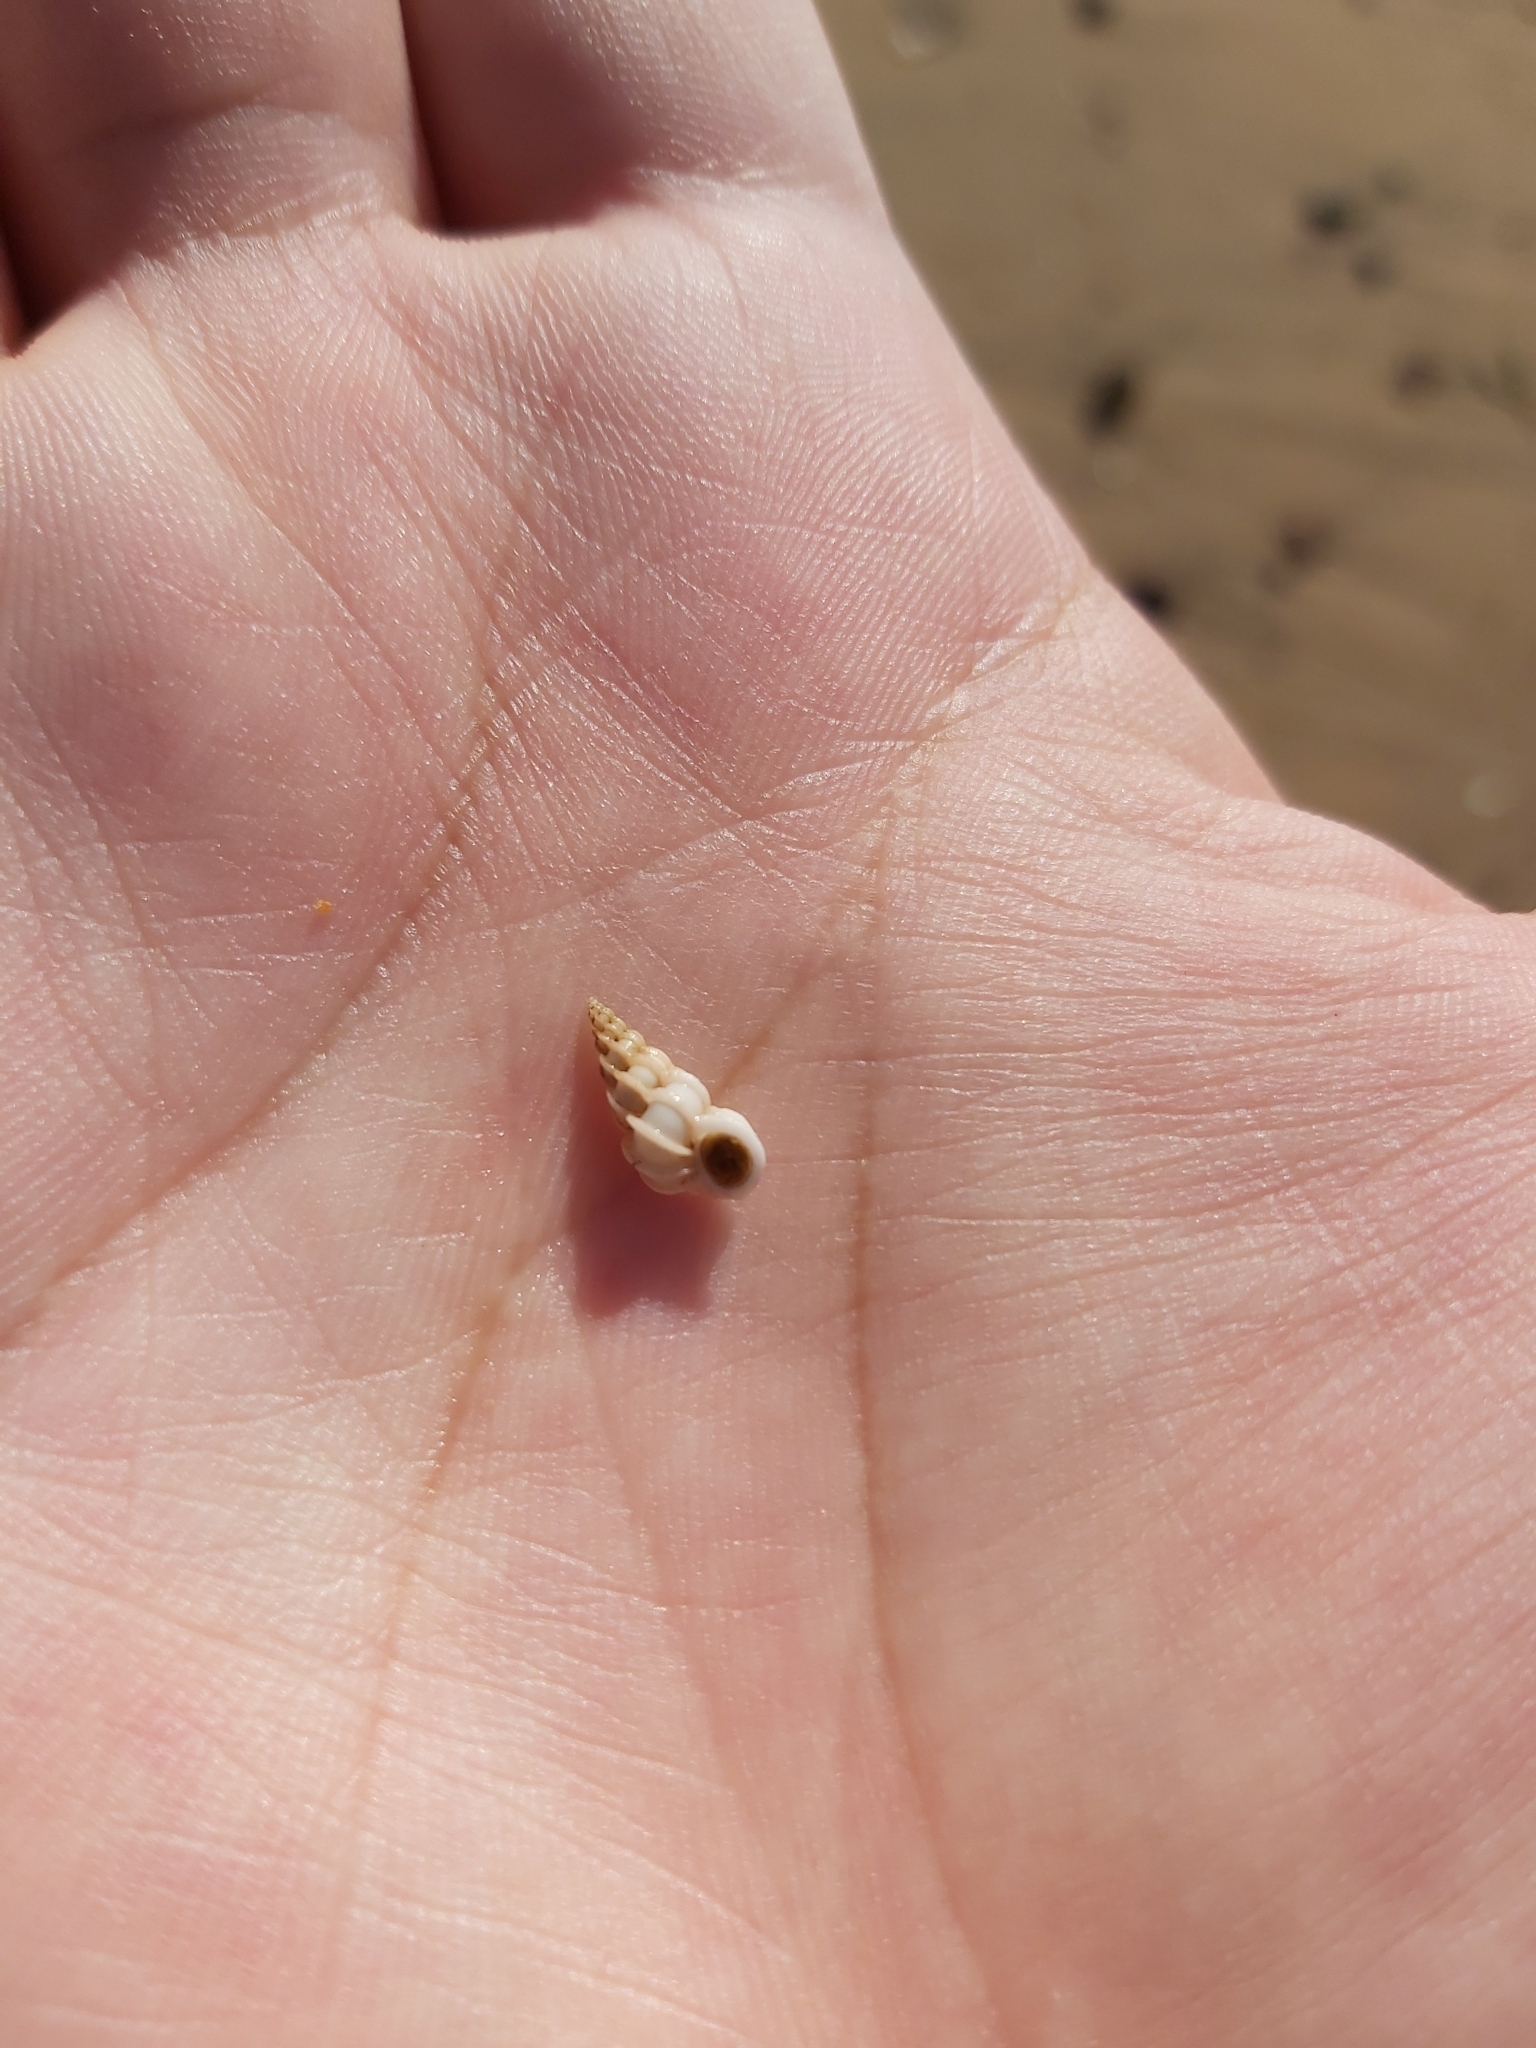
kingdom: Animalia
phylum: Mollusca
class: Gastropoda
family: Epitoniidae
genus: Epitonium
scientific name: Epitonium minorum
